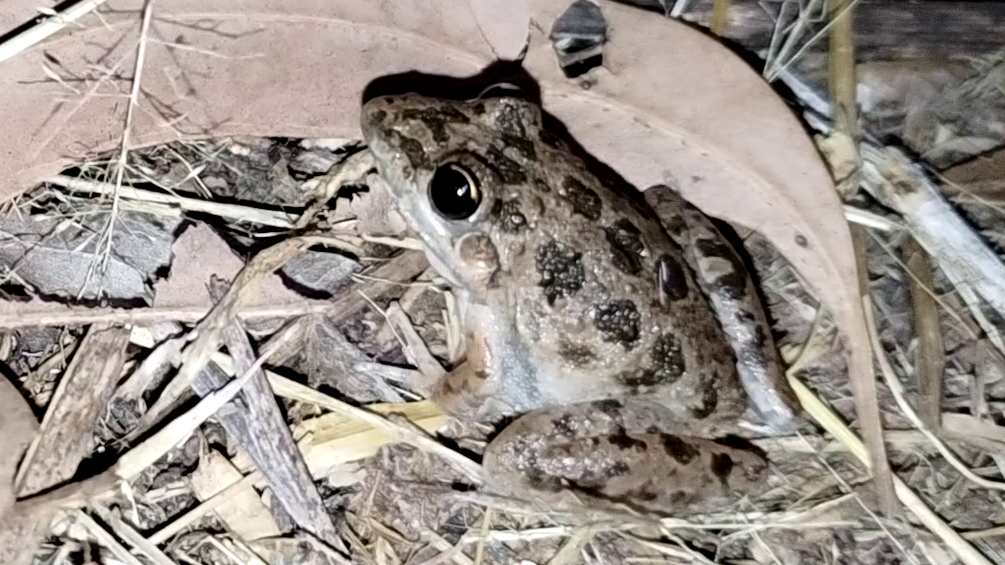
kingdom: Animalia
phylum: Chordata
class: Amphibia
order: Anura
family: Limnodynastidae
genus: Limnodynastes
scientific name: Limnodynastes convexiusculus
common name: Marbled frog
